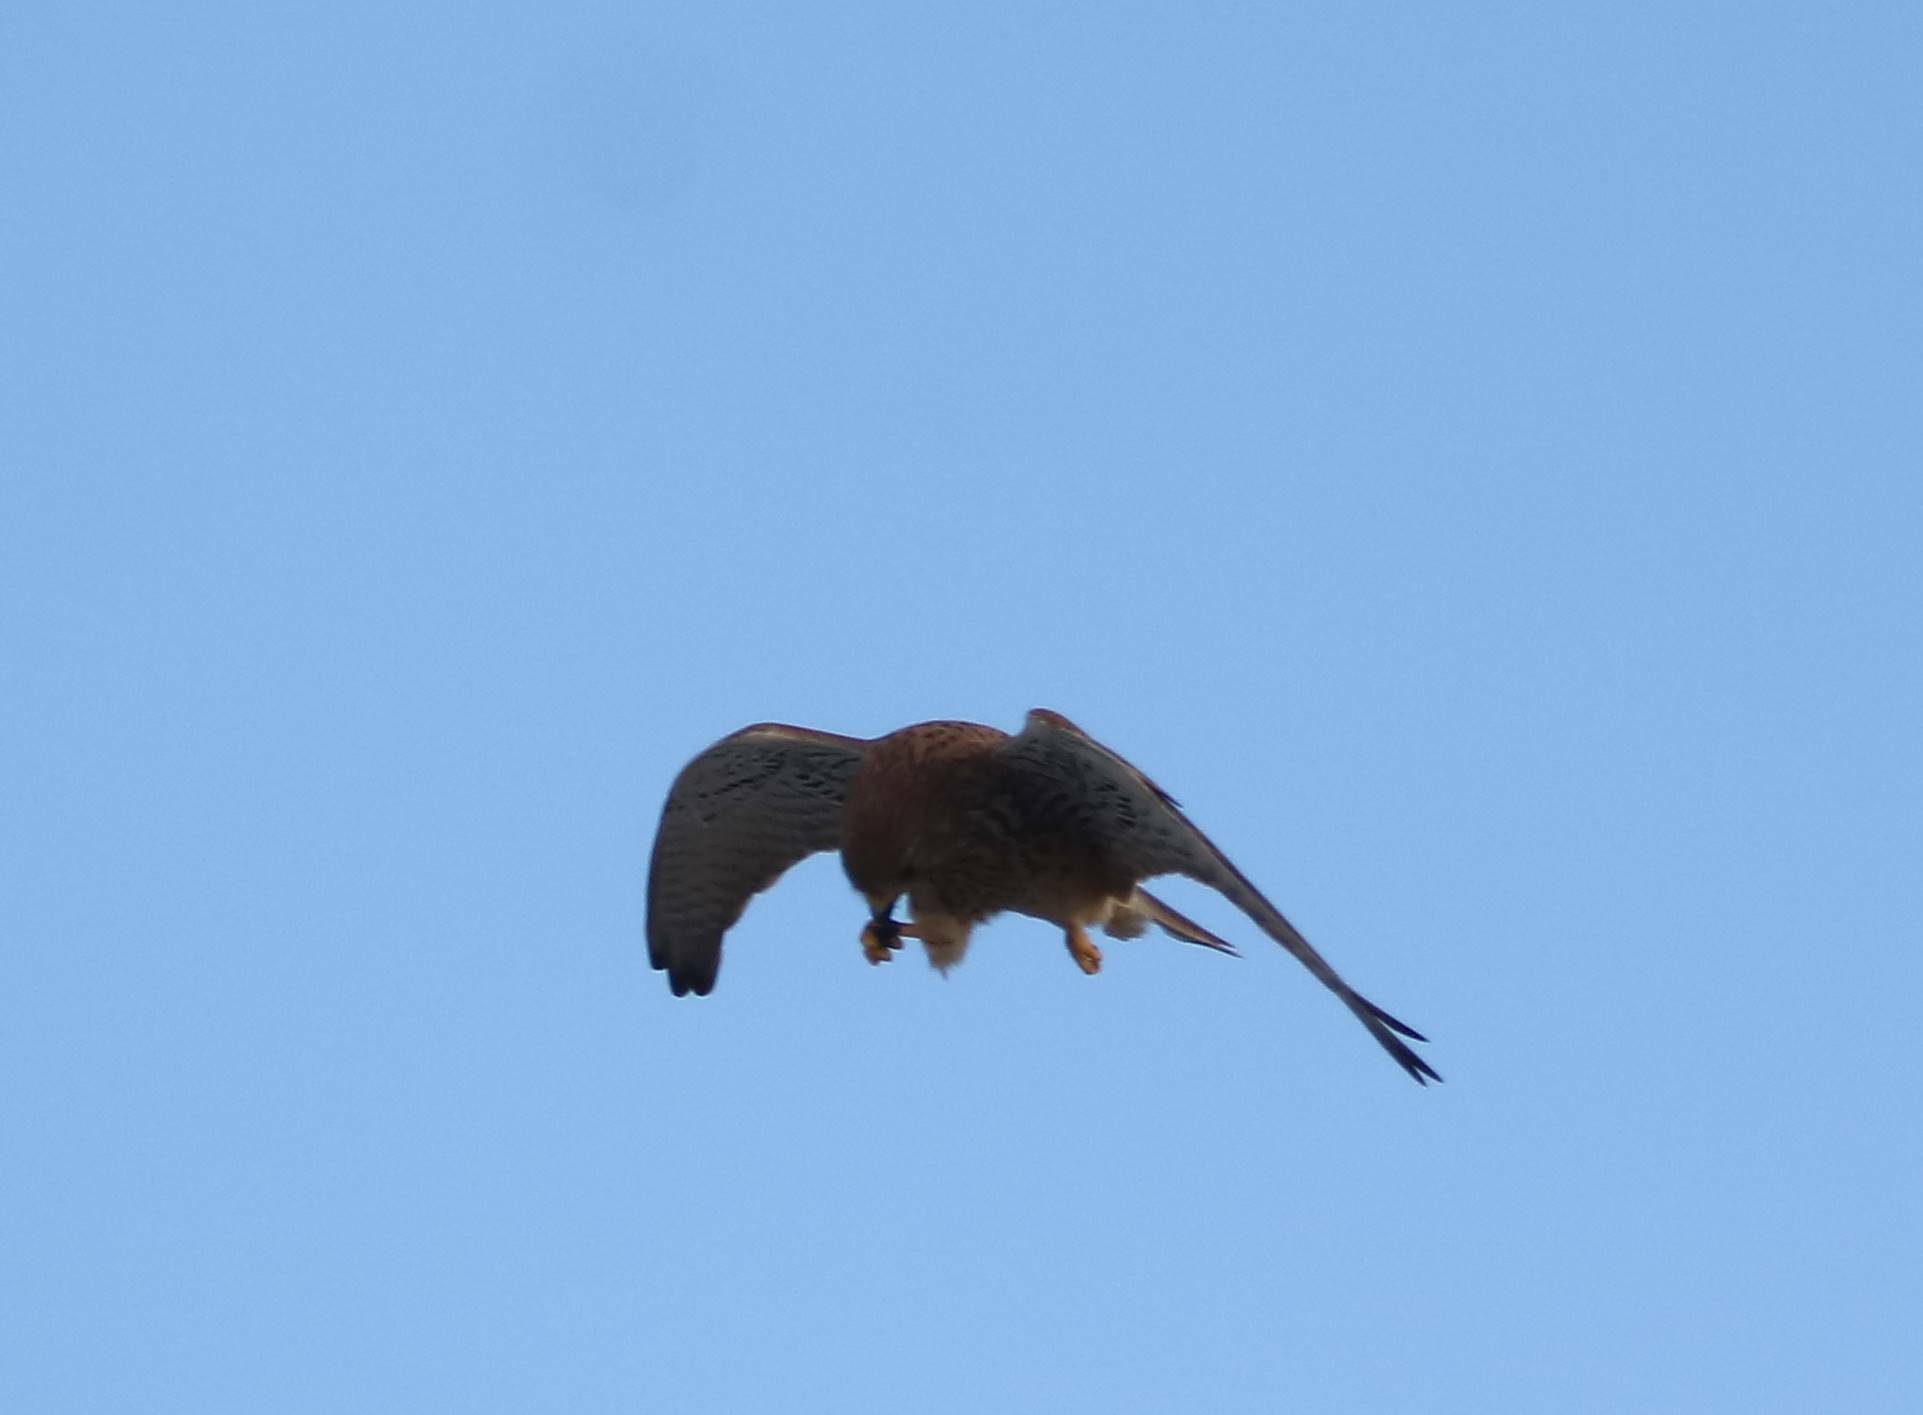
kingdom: Animalia
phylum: Chordata
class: Aves
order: Falconiformes
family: Falconidae
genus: Falco
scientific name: Falco tinnunculus
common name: Common kestrel
